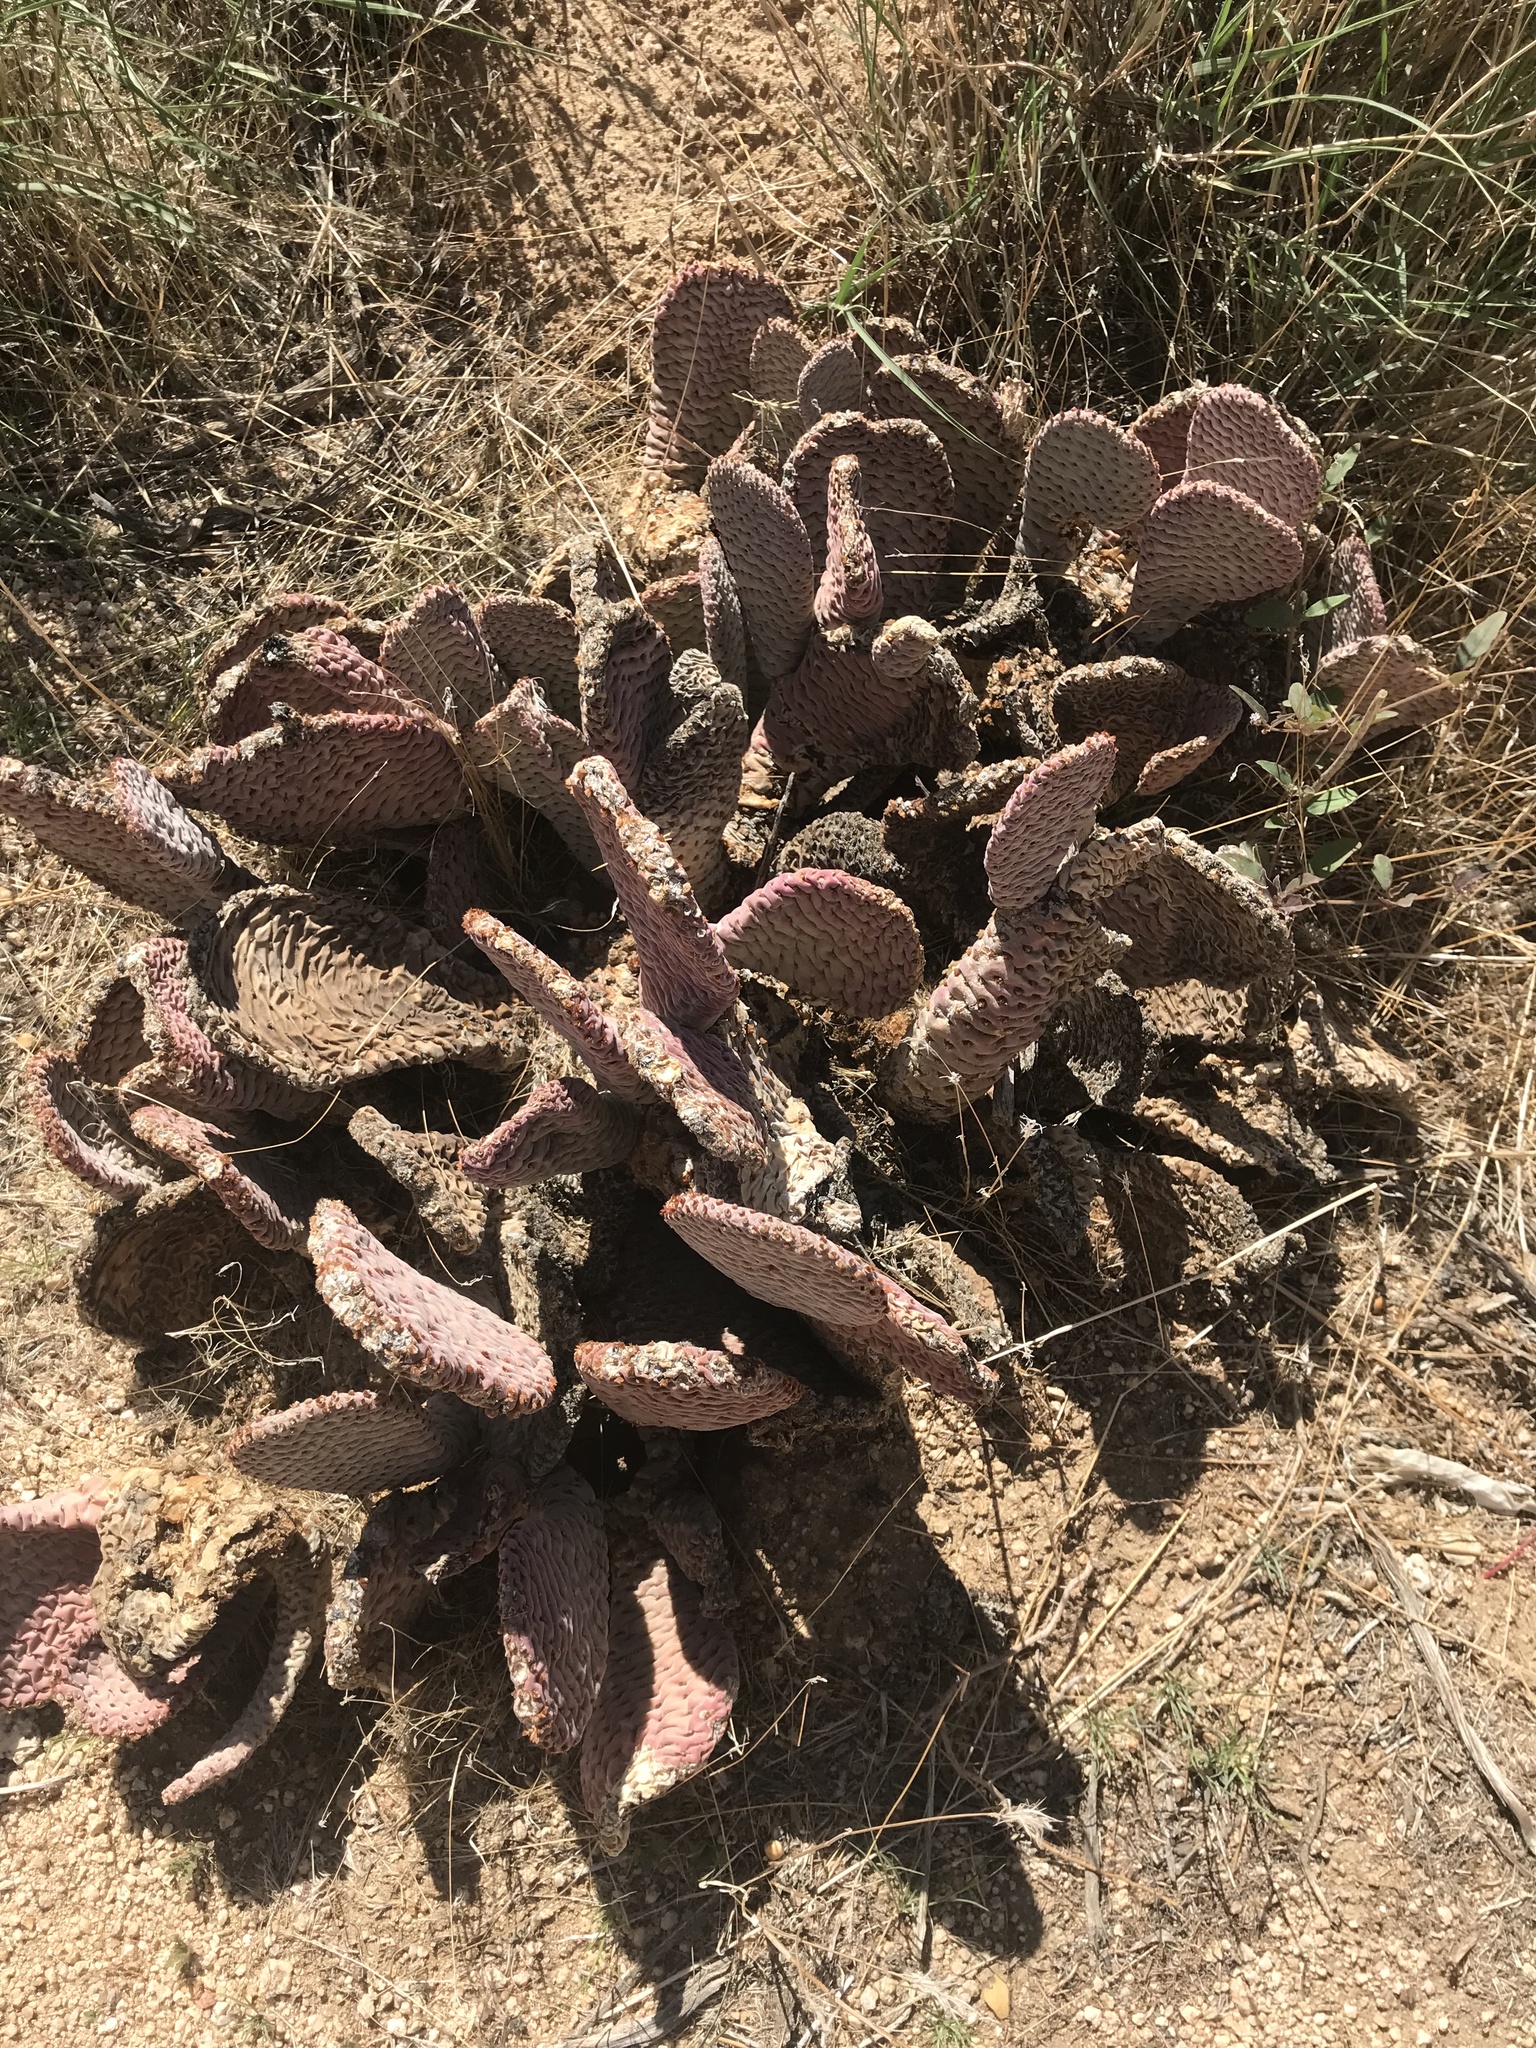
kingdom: Plantae
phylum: Tracheophyta
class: Magnoliopsida
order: Caryophyllales
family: Cactaceae
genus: Opuntia
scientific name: Opuntia basilaris
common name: Beavertail prickly-pear
